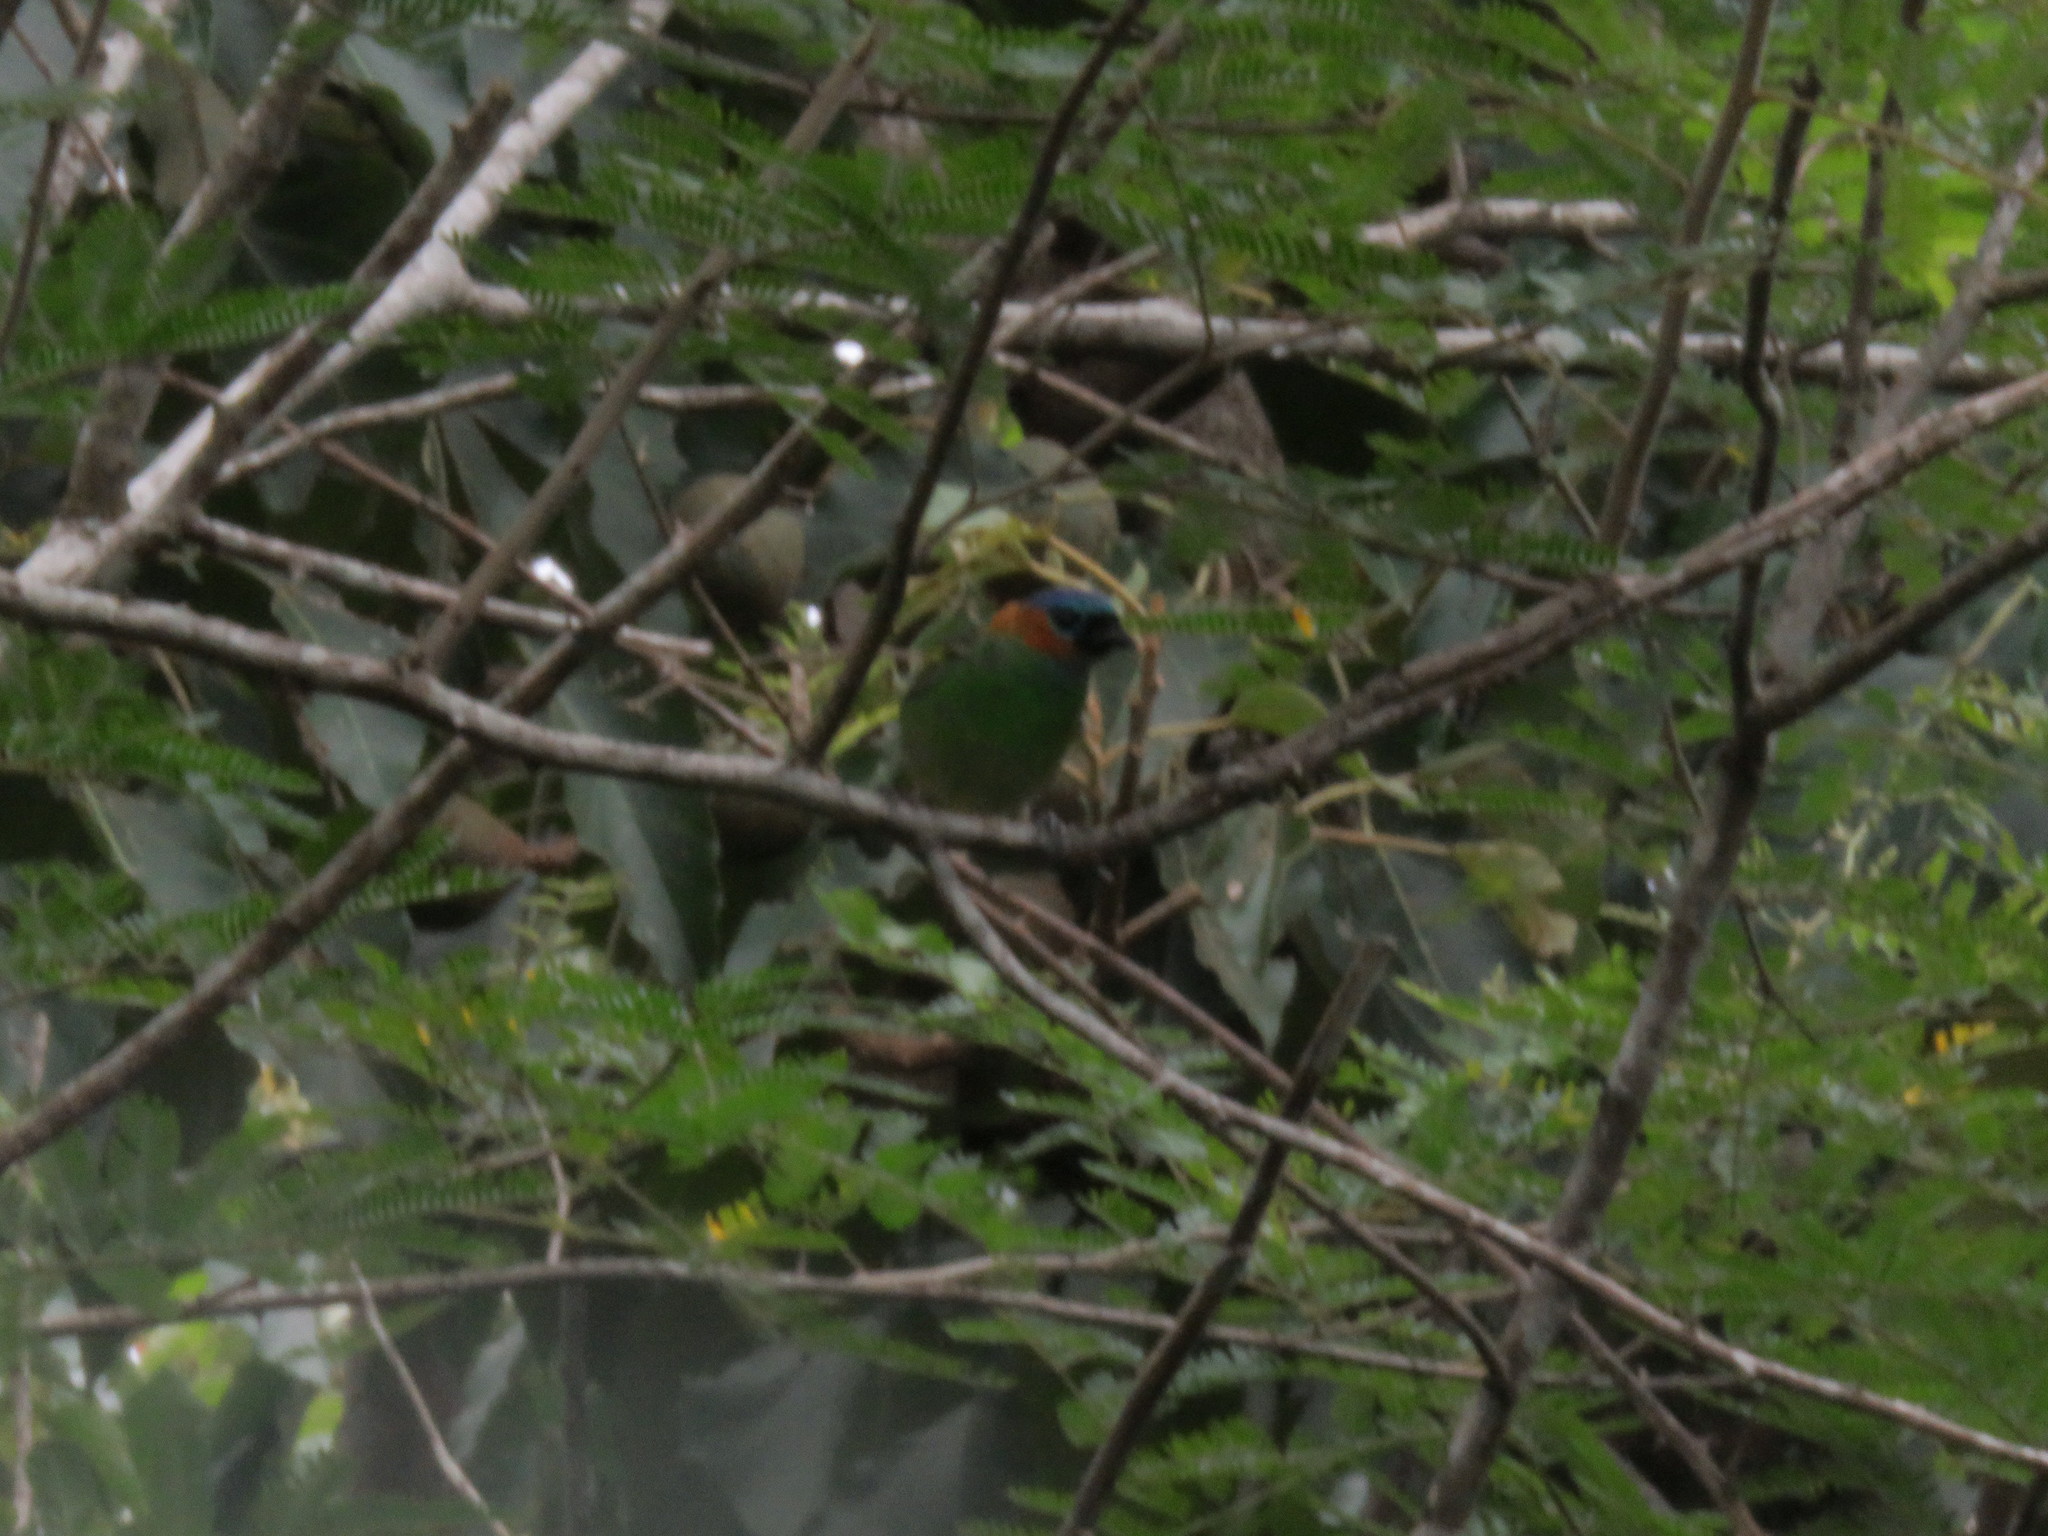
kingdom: Animalia
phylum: Chordata
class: Aves
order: Passeriformes
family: Thraupidae
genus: Tangara
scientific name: Tangara cyanocephala
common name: Red-necked tanager
